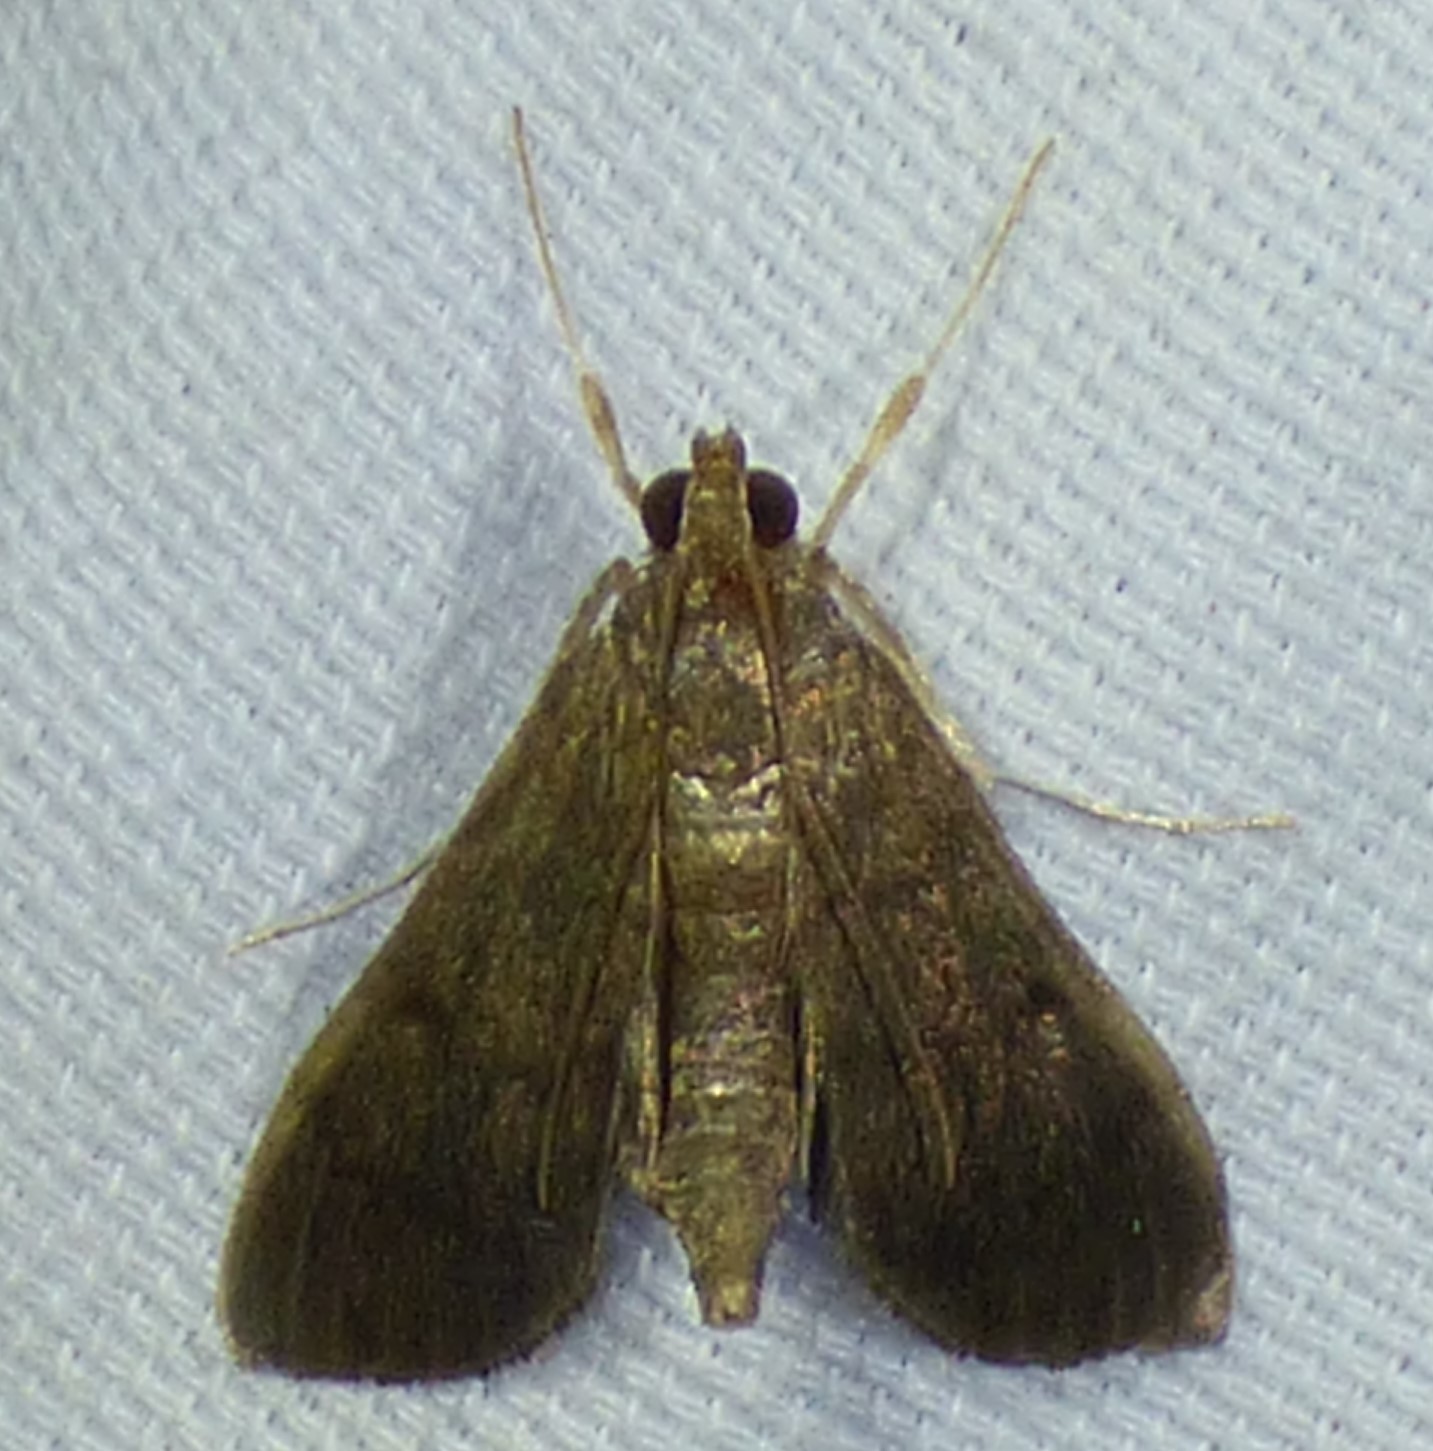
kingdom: Animalia
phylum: Arthropoda
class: Insecta
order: Lepidoptera
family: Crambidae
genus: Herpetogramma
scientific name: Herpetogramma phaeopteralis
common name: Dusky herpetogramma moth
